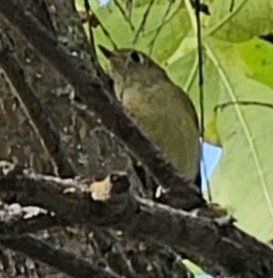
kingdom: Animalia
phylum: Chordata
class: Aves
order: Passeriformes
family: Regulidae
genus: Regulus
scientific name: Regulus calendula
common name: Ruby-crowned kinglet
